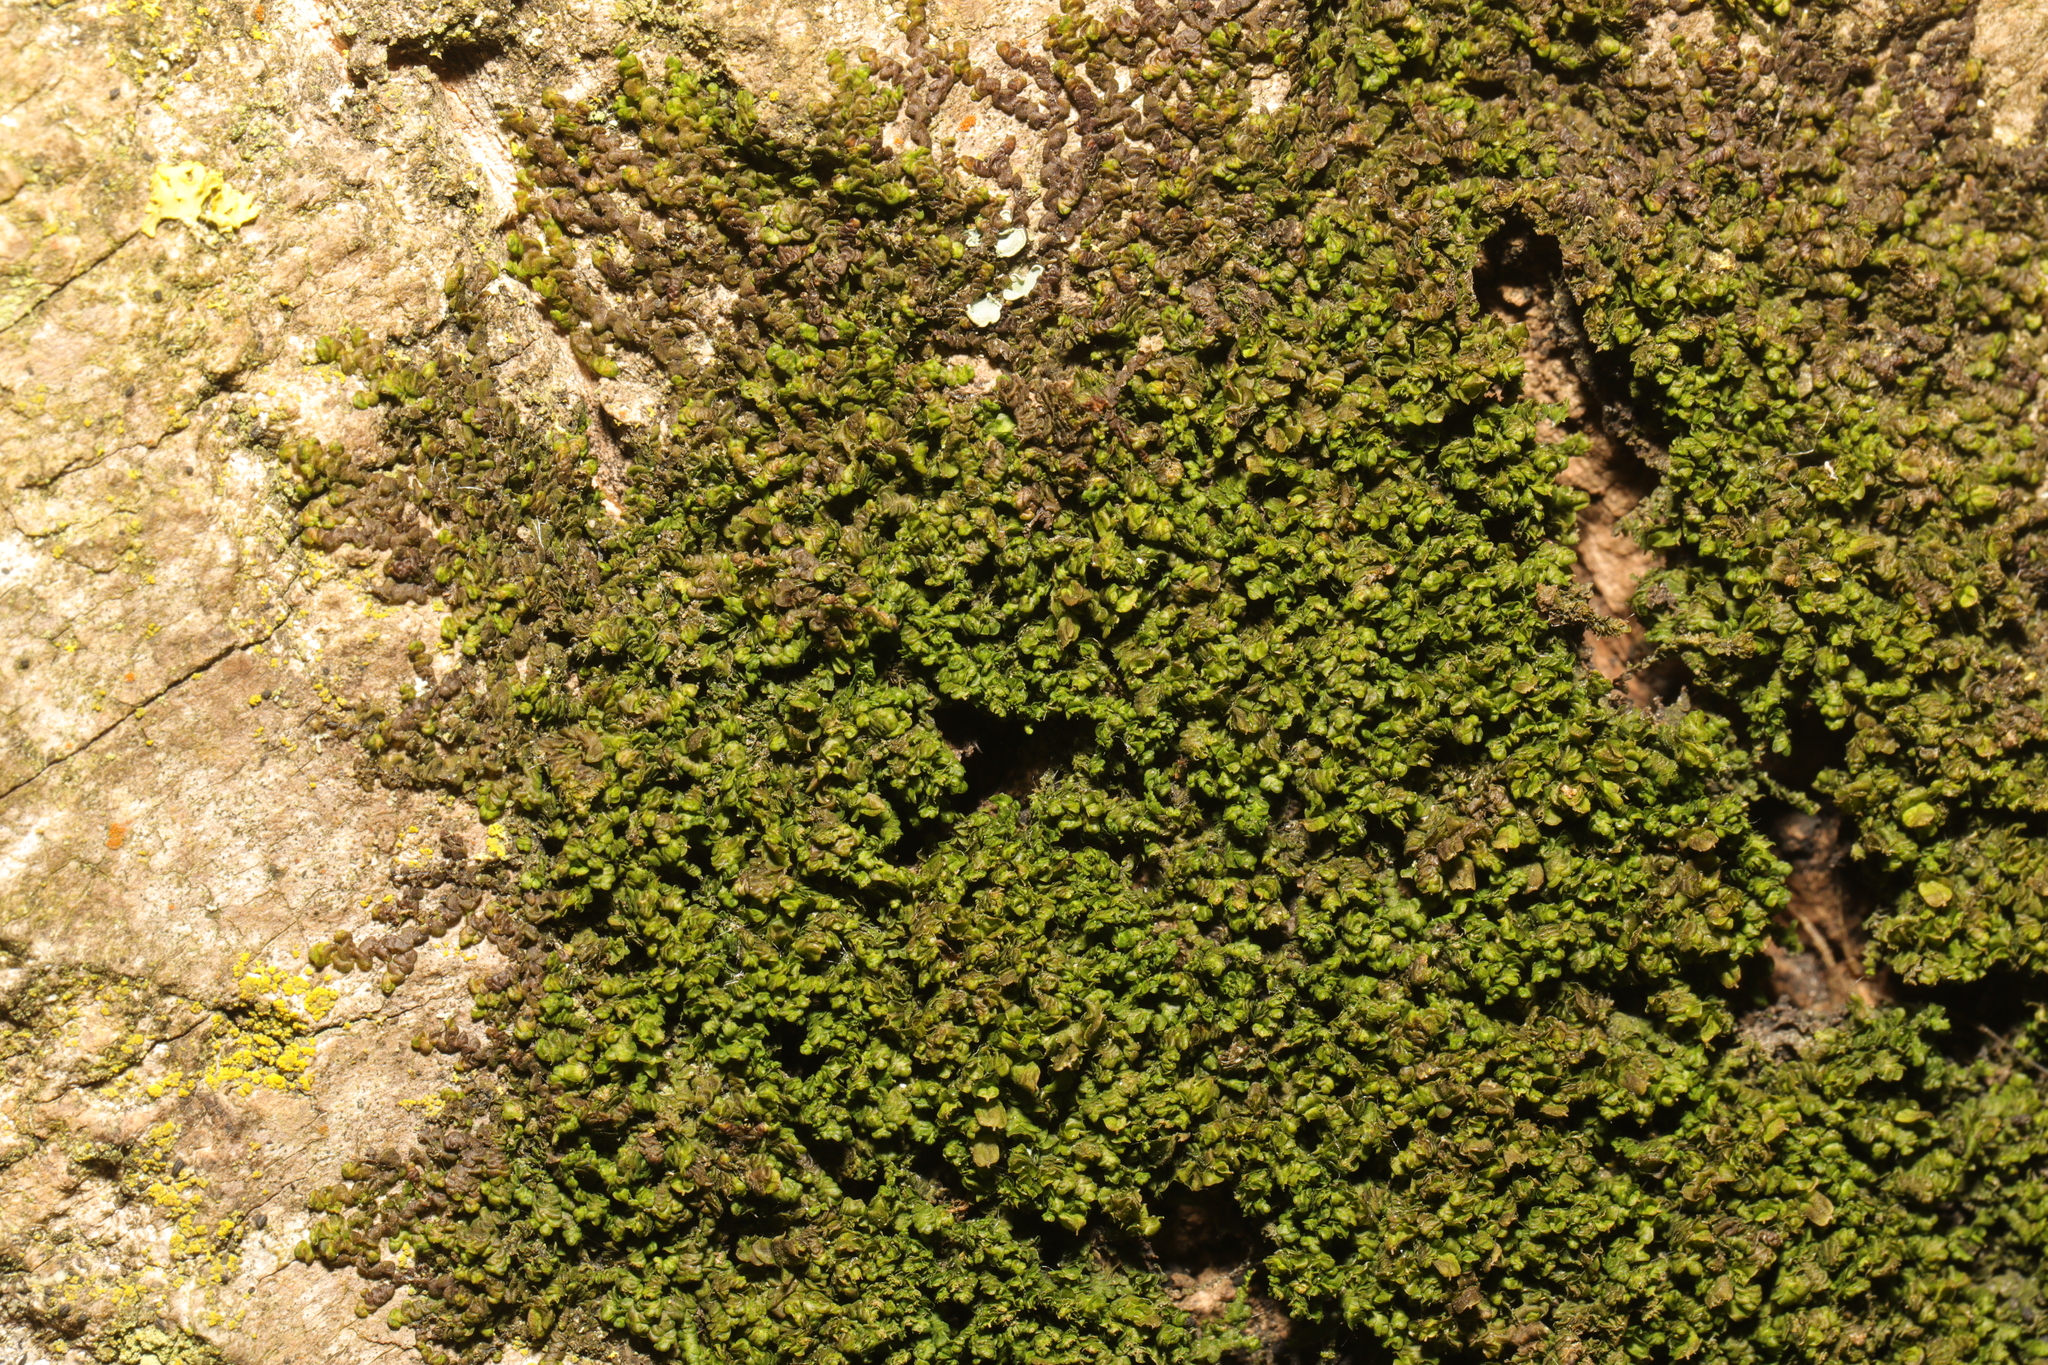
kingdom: Plantae
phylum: Marchantiophyta
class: Jungermanniopsida
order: Porellales
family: Frullaniaceae
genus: Frullania
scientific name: Frullania dilatata
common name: Dilated scalewort
